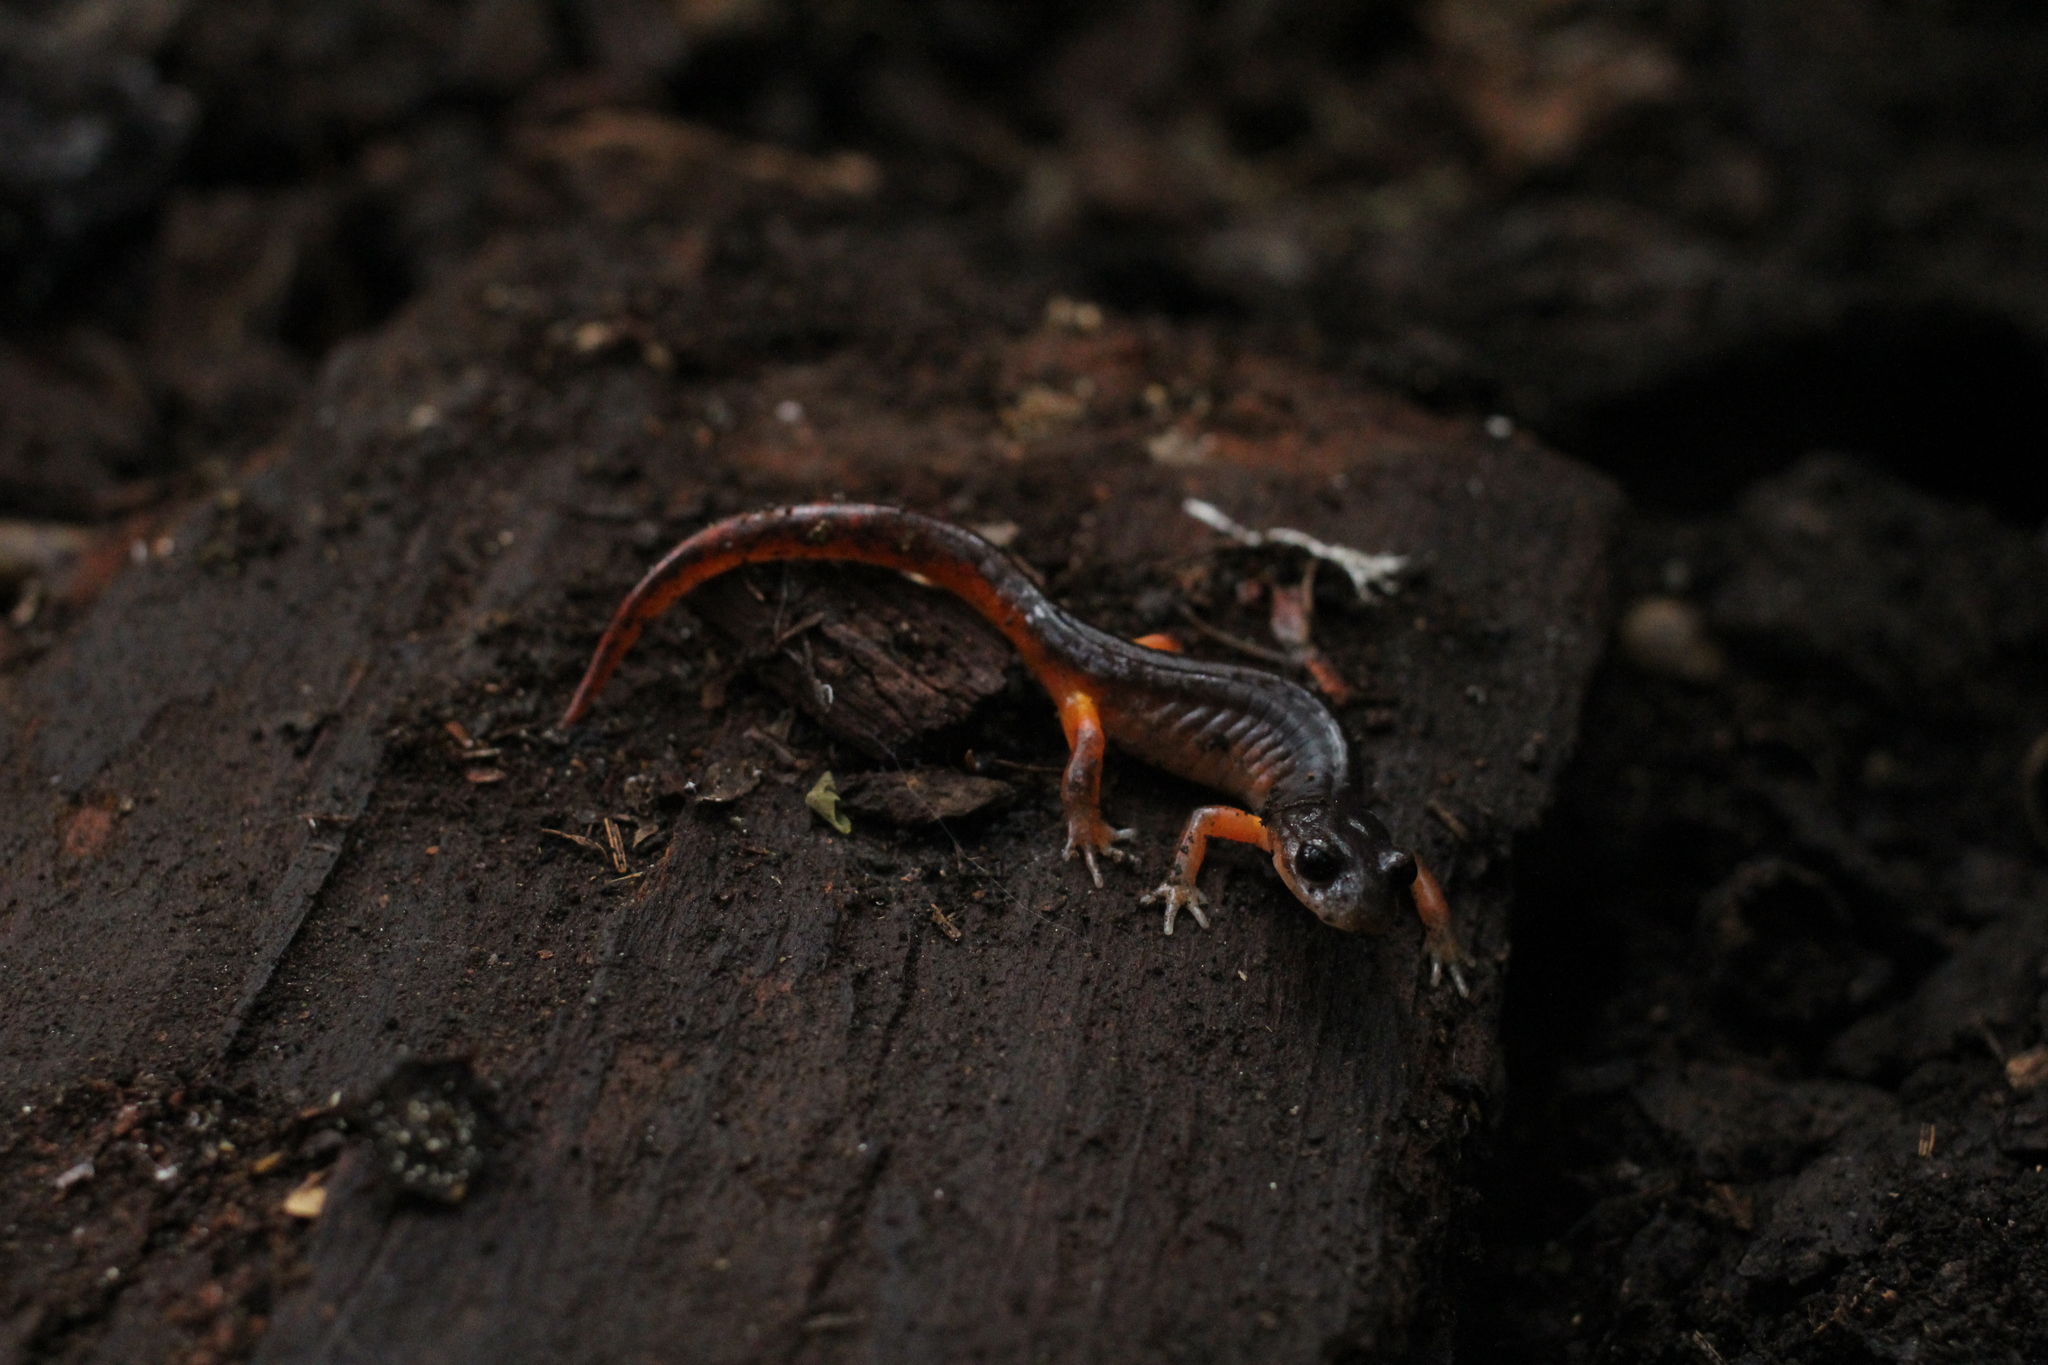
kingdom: Animalia
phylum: Chordata
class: Amphibia
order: Caudata
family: Plethodontidae
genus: Ensatina
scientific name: Ensatina eschscholtzii
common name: Ensatina
